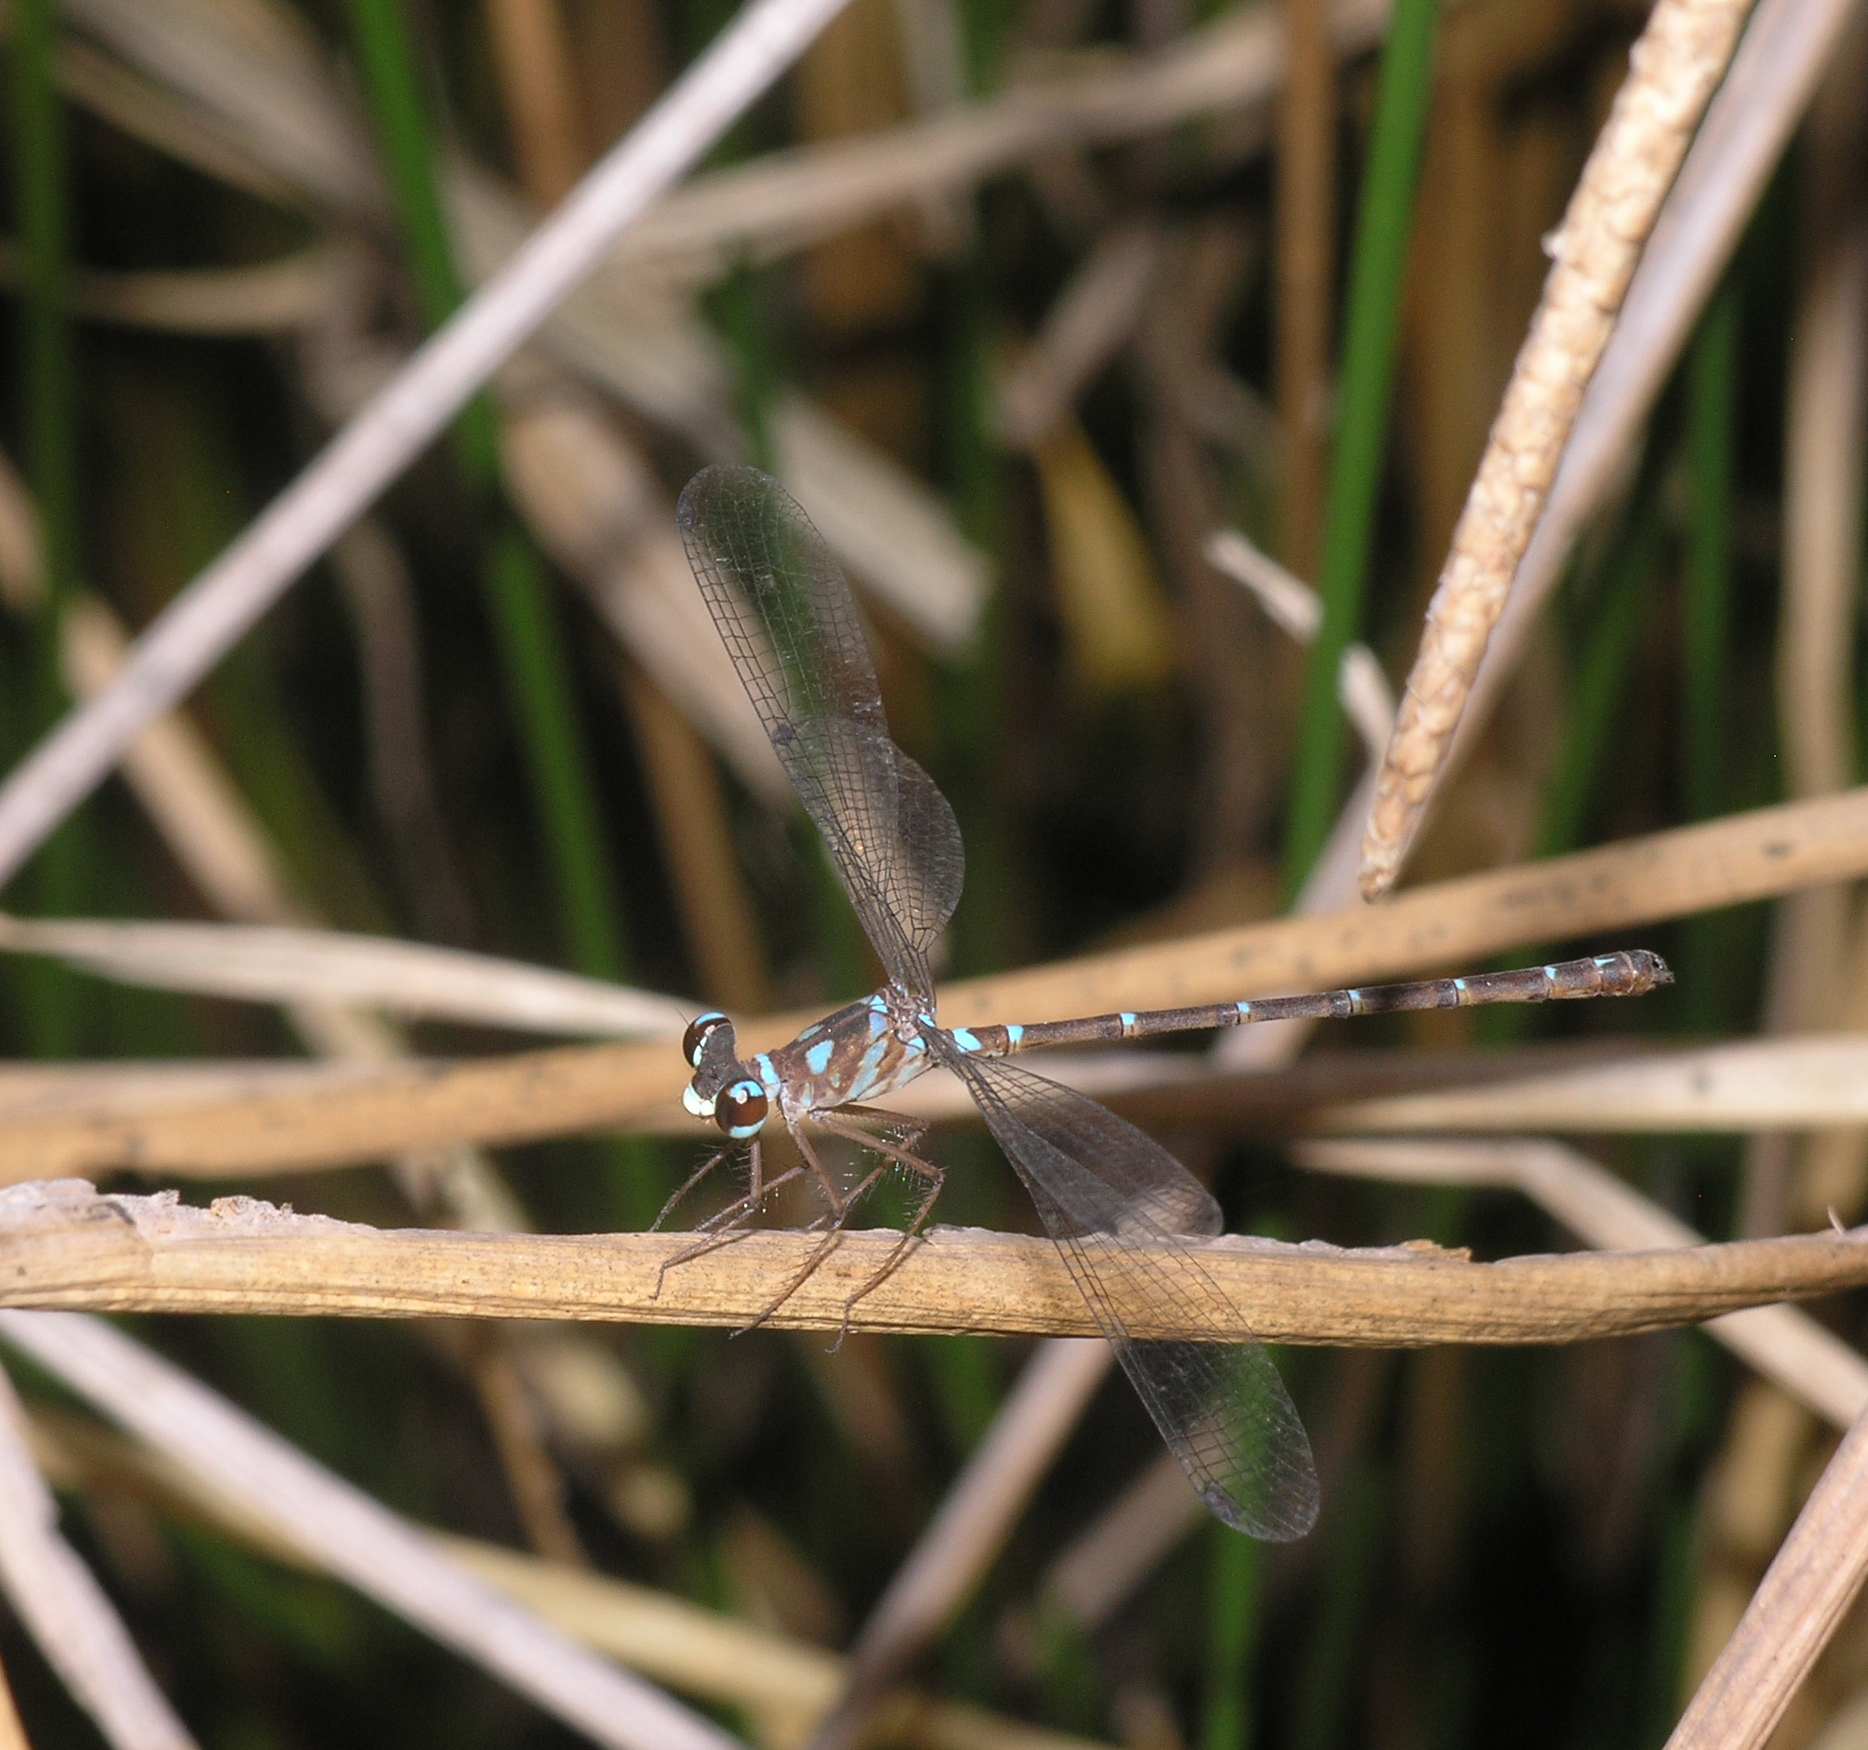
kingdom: Animalia
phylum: Arthropoda
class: Insecta
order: Odonata
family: Argiolestidae
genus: Podolestes
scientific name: Podolestes coomansi
